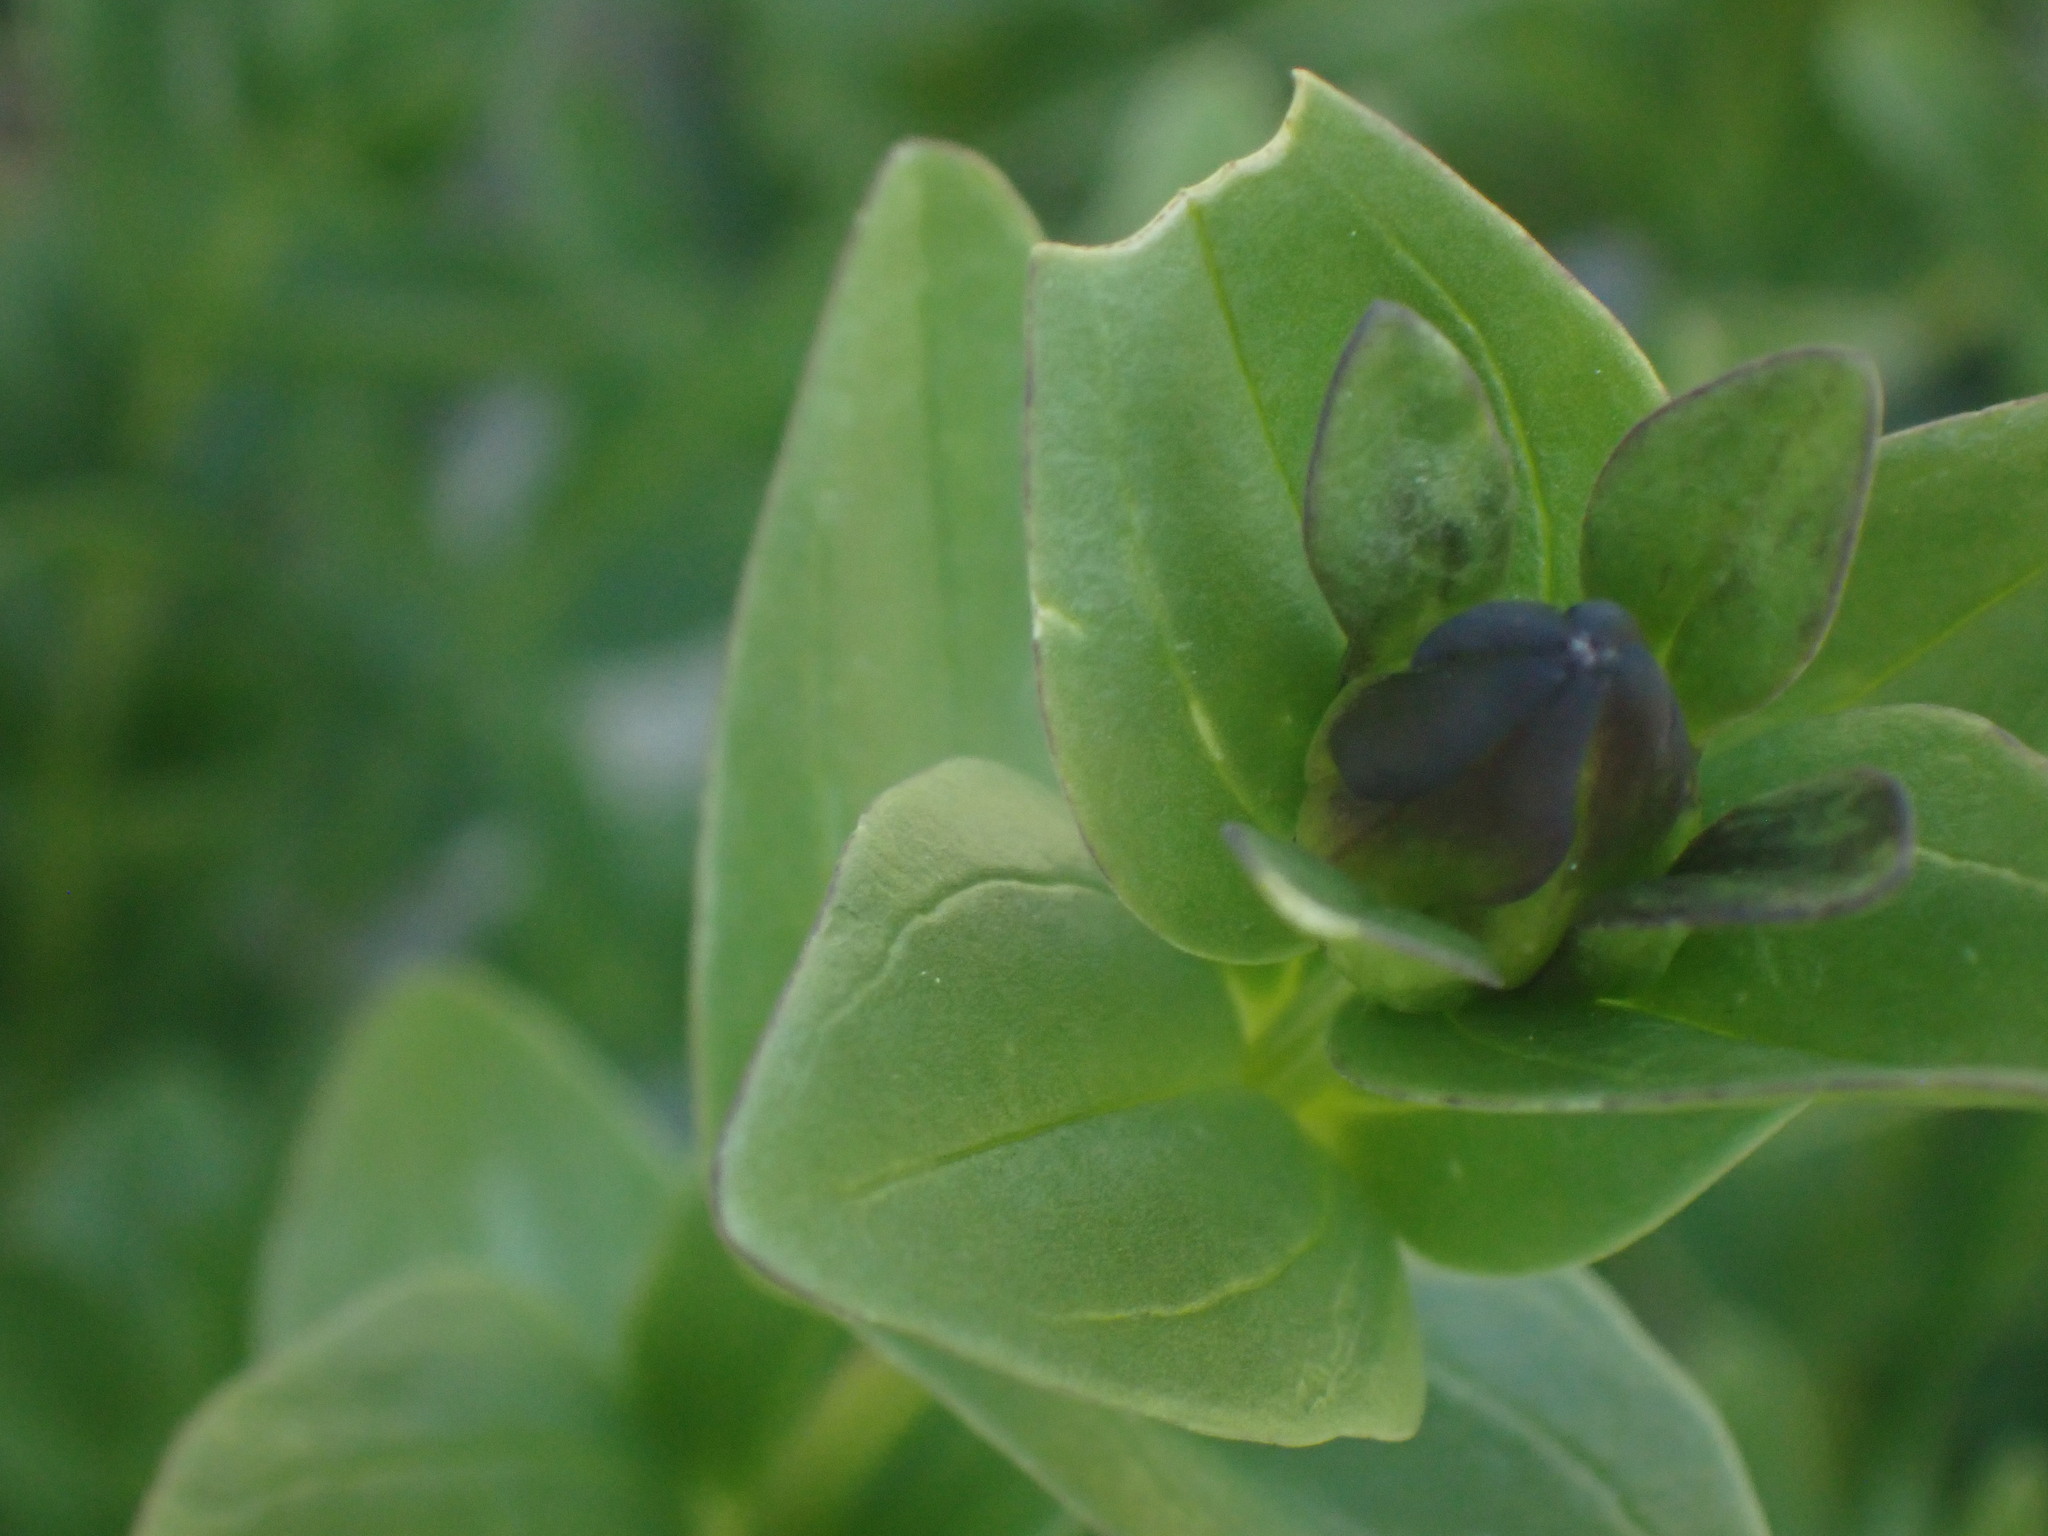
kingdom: Plantae
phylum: Tracheophyta
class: Magnoliopsida
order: Gentianales
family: Gentianaceae
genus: Gentiana
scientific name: Gentiana calycosa
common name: Rainier pleated gentian
